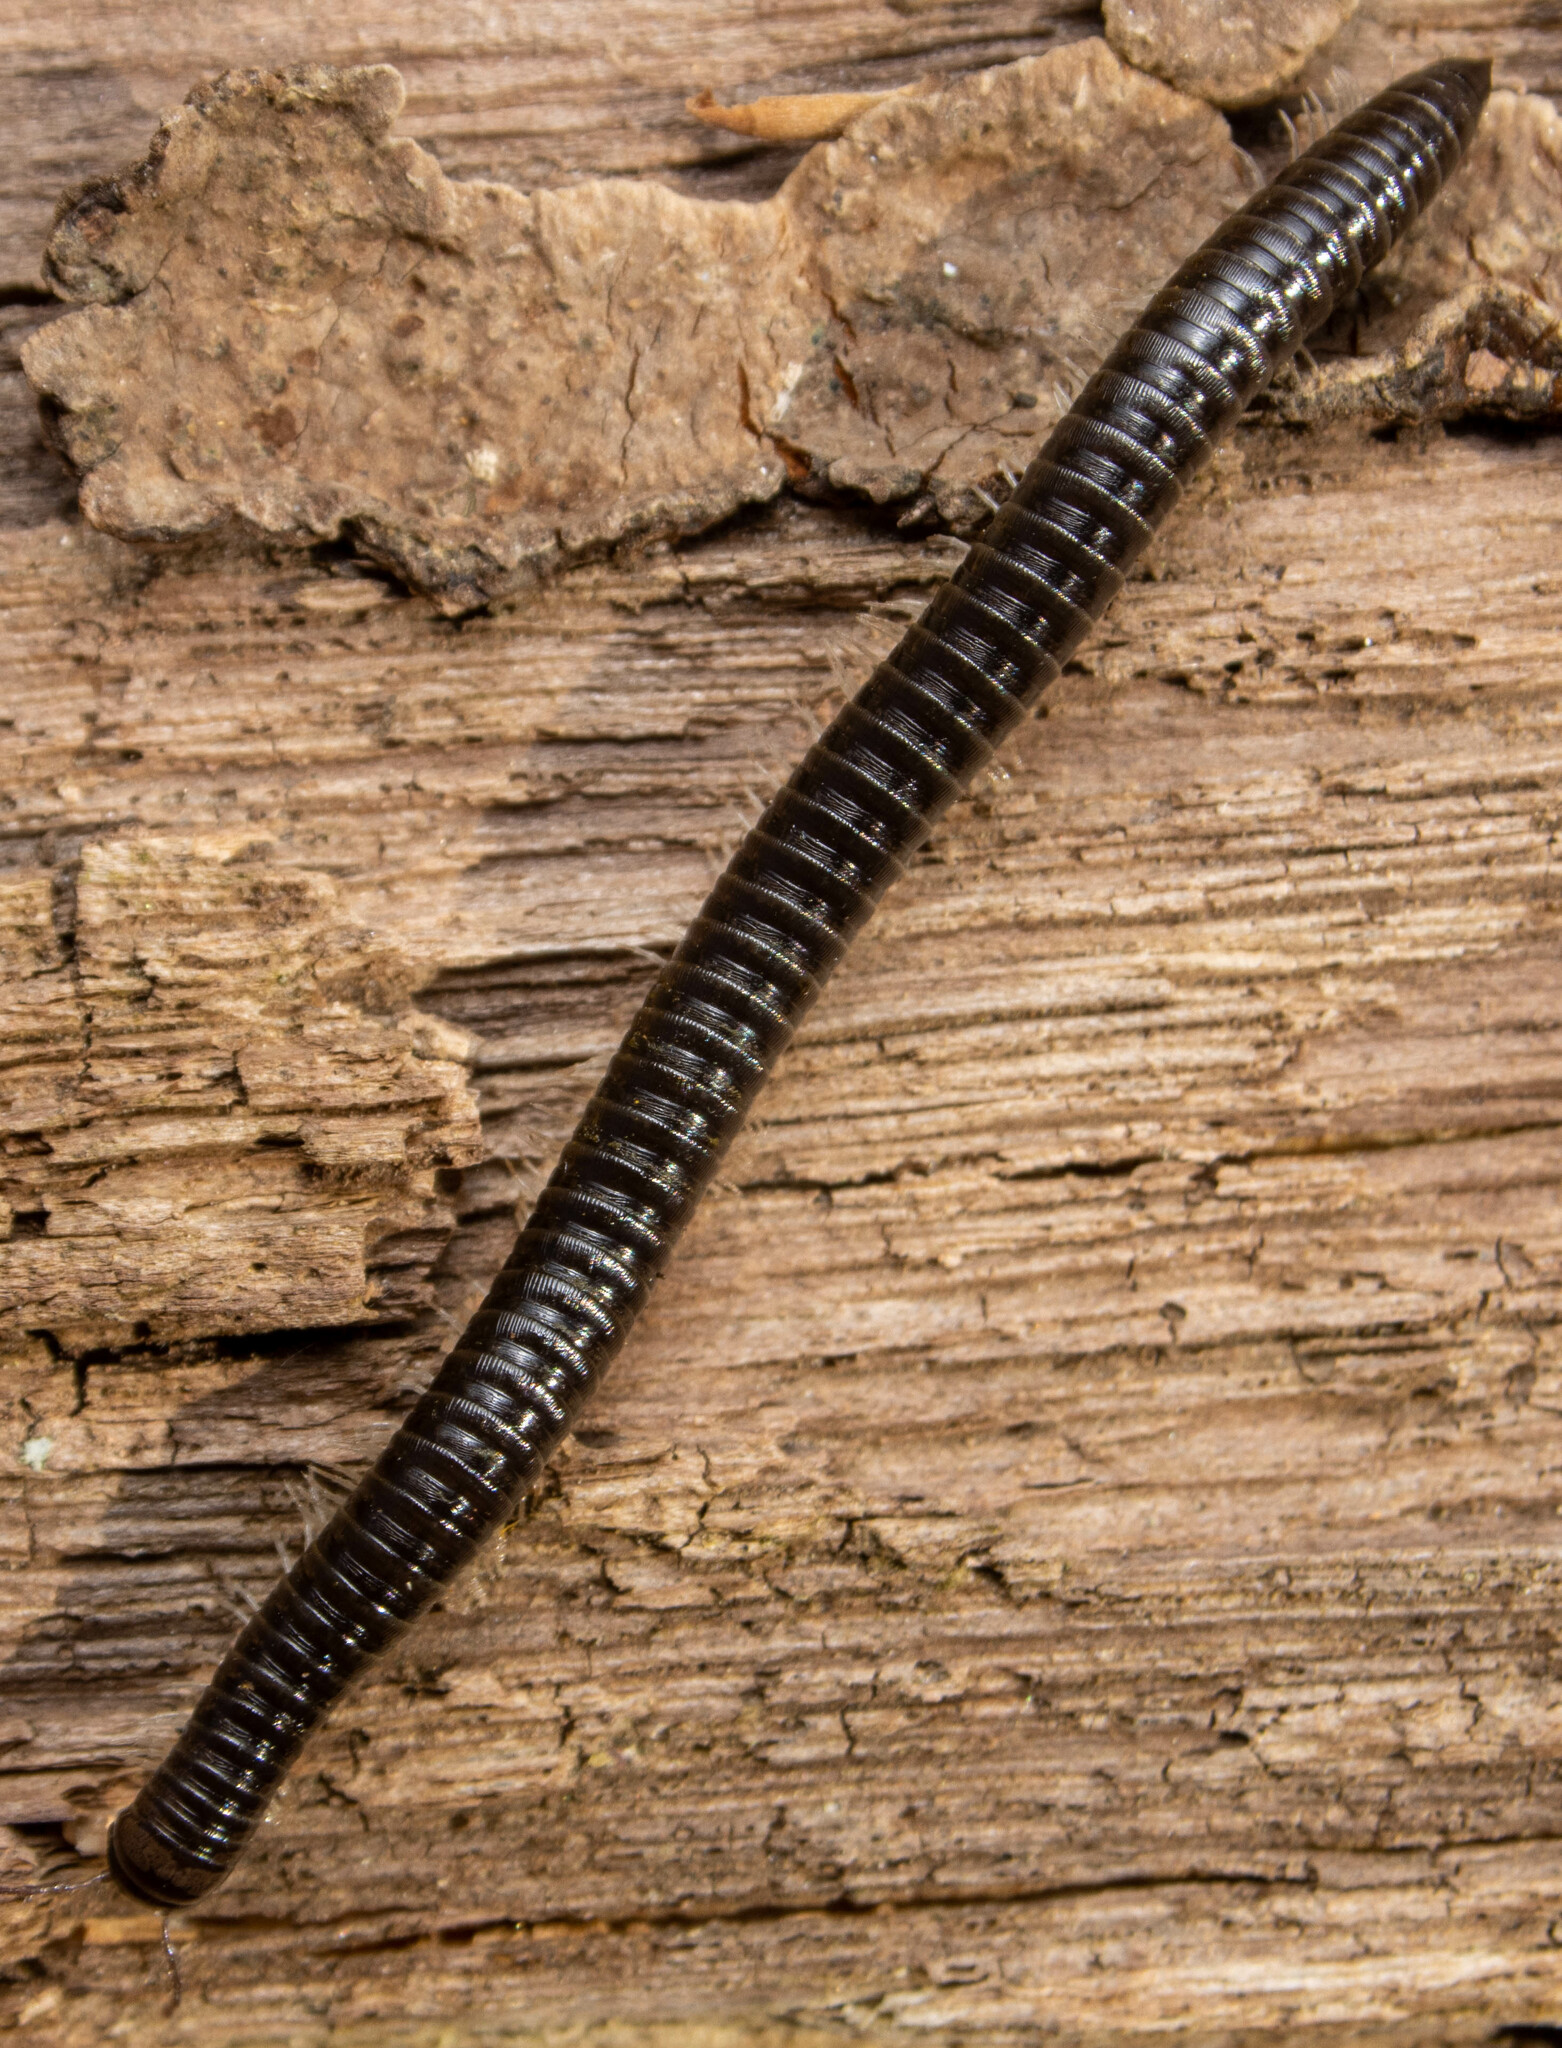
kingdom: Animalia
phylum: Arthropoda
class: Diplopoda
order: Julida
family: Julidae
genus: Tachypodoiulus
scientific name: Tachypodoiulus niger
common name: White-legged snake millipede
